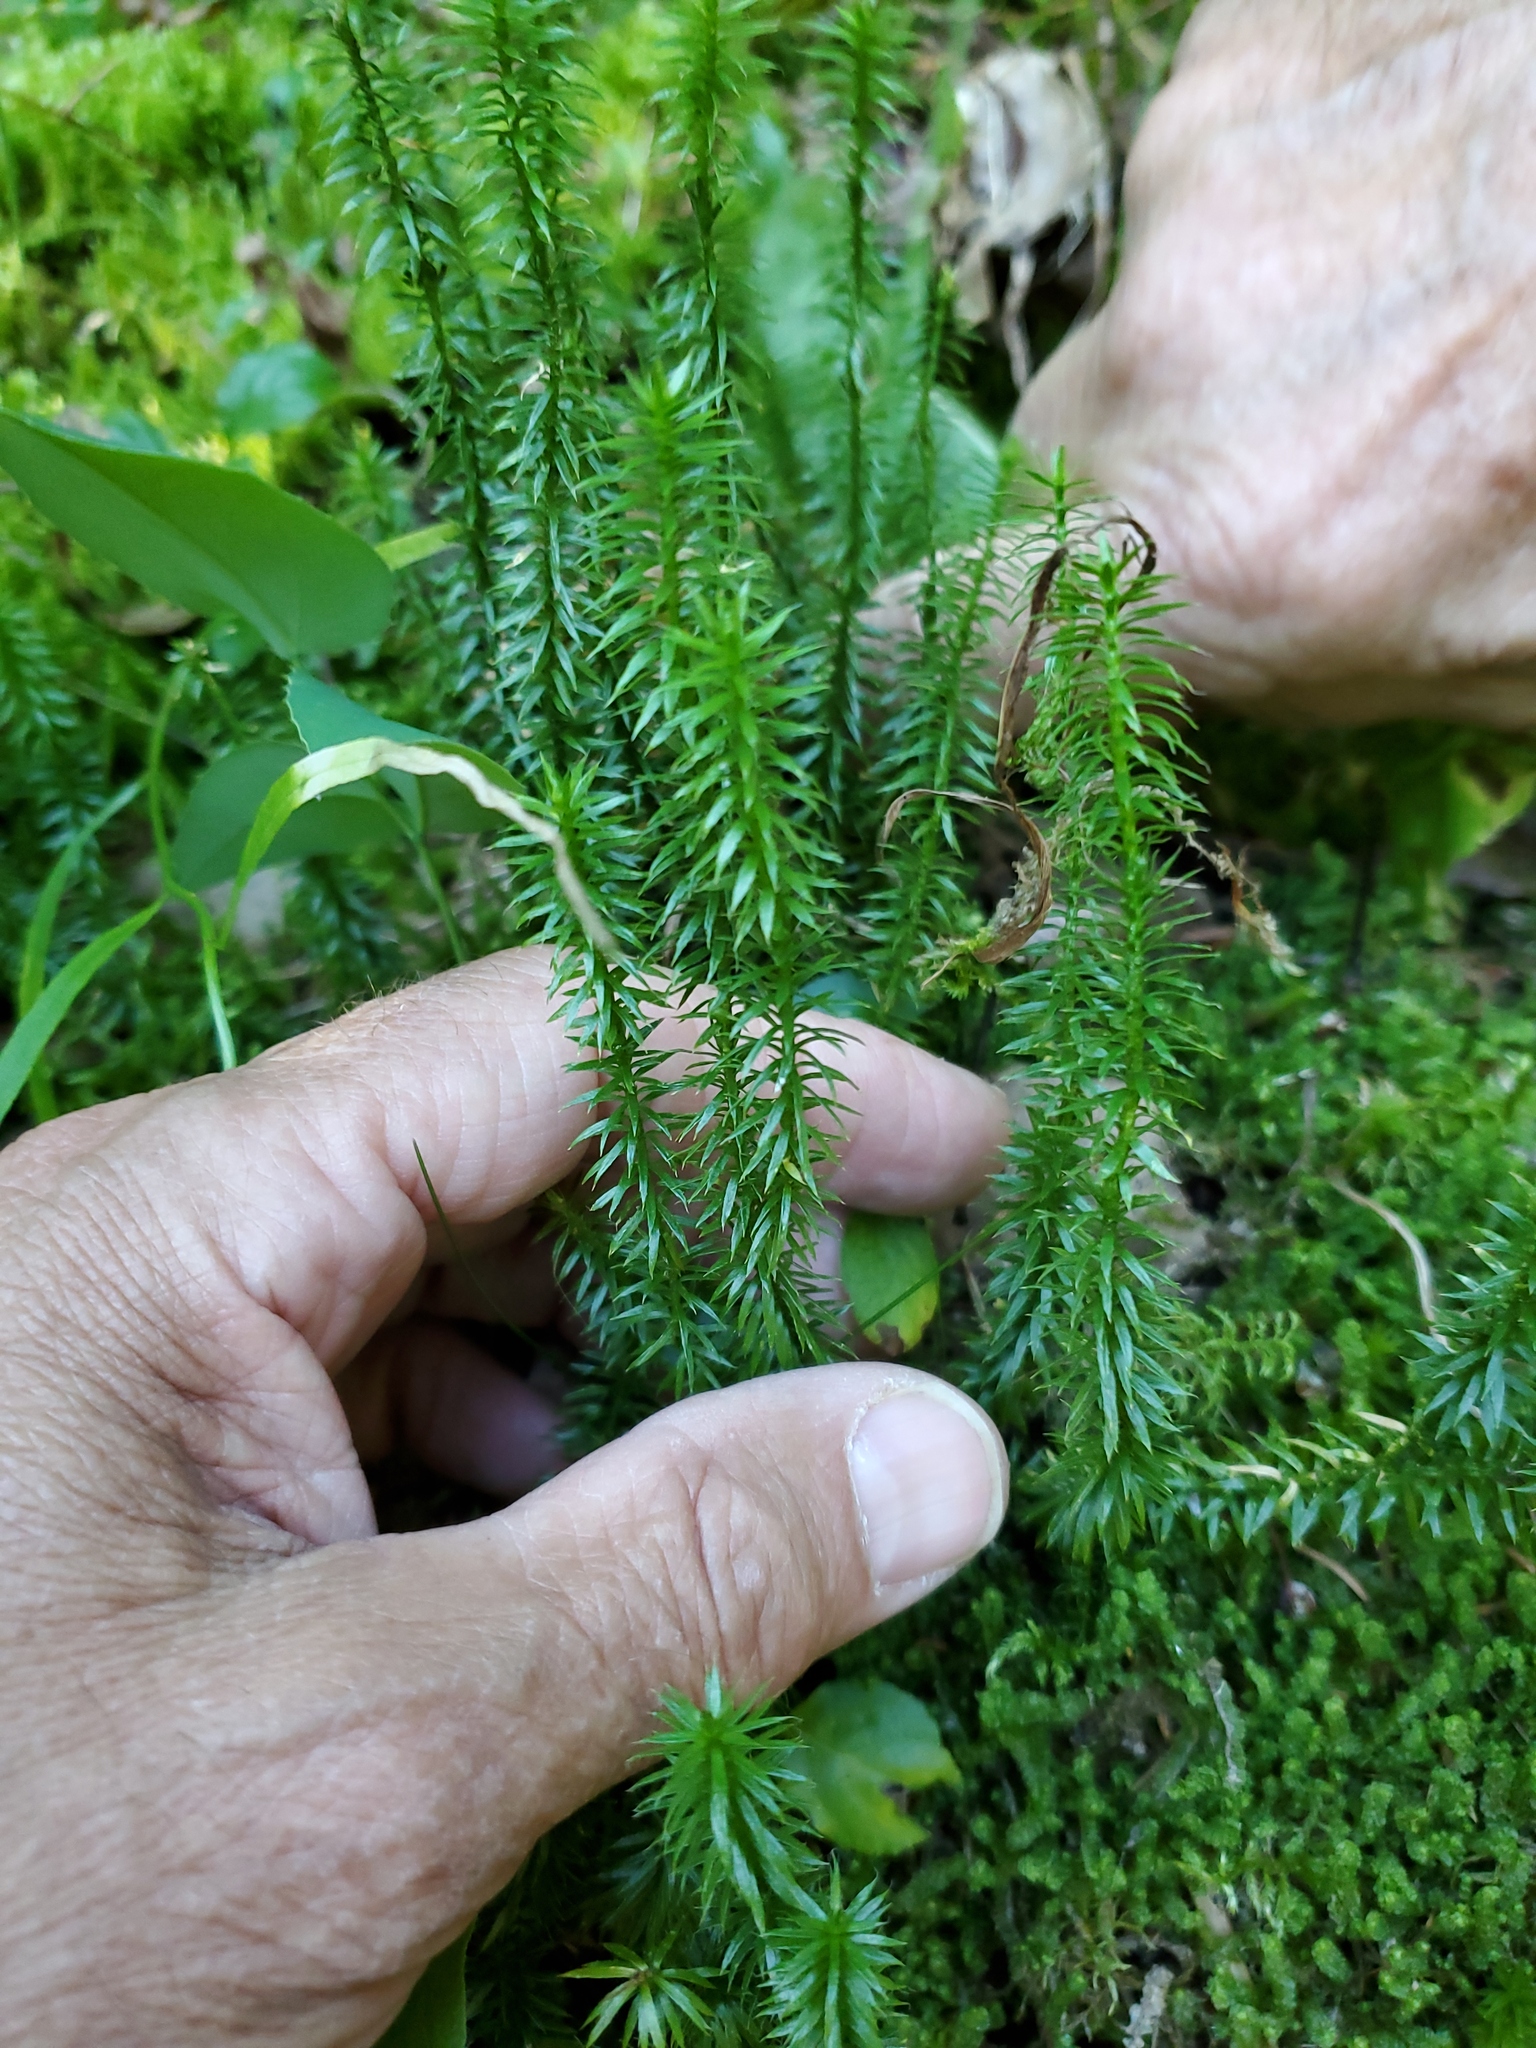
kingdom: Plantae
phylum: Tracheophyta
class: Lycopodiopsida
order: Lycopodiales
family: Lycopodiaceae
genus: Spinulum
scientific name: Spinulum annotinum
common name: Interrupted club-moss
